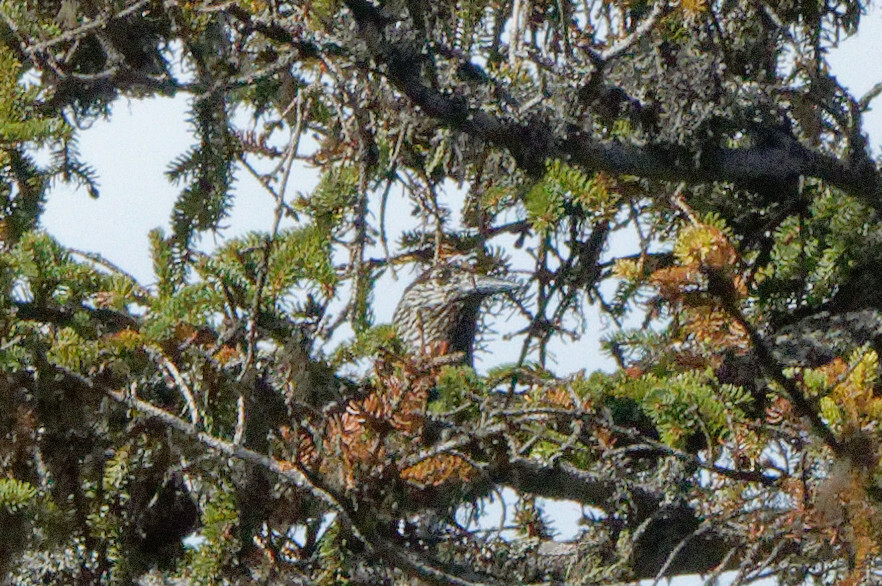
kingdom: Animalia
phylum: Chordata
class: Aves
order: Passeriformes
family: Corvidae
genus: Nucifraga
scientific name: Nucifraga caryocatactes
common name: Spotted nutcracker
